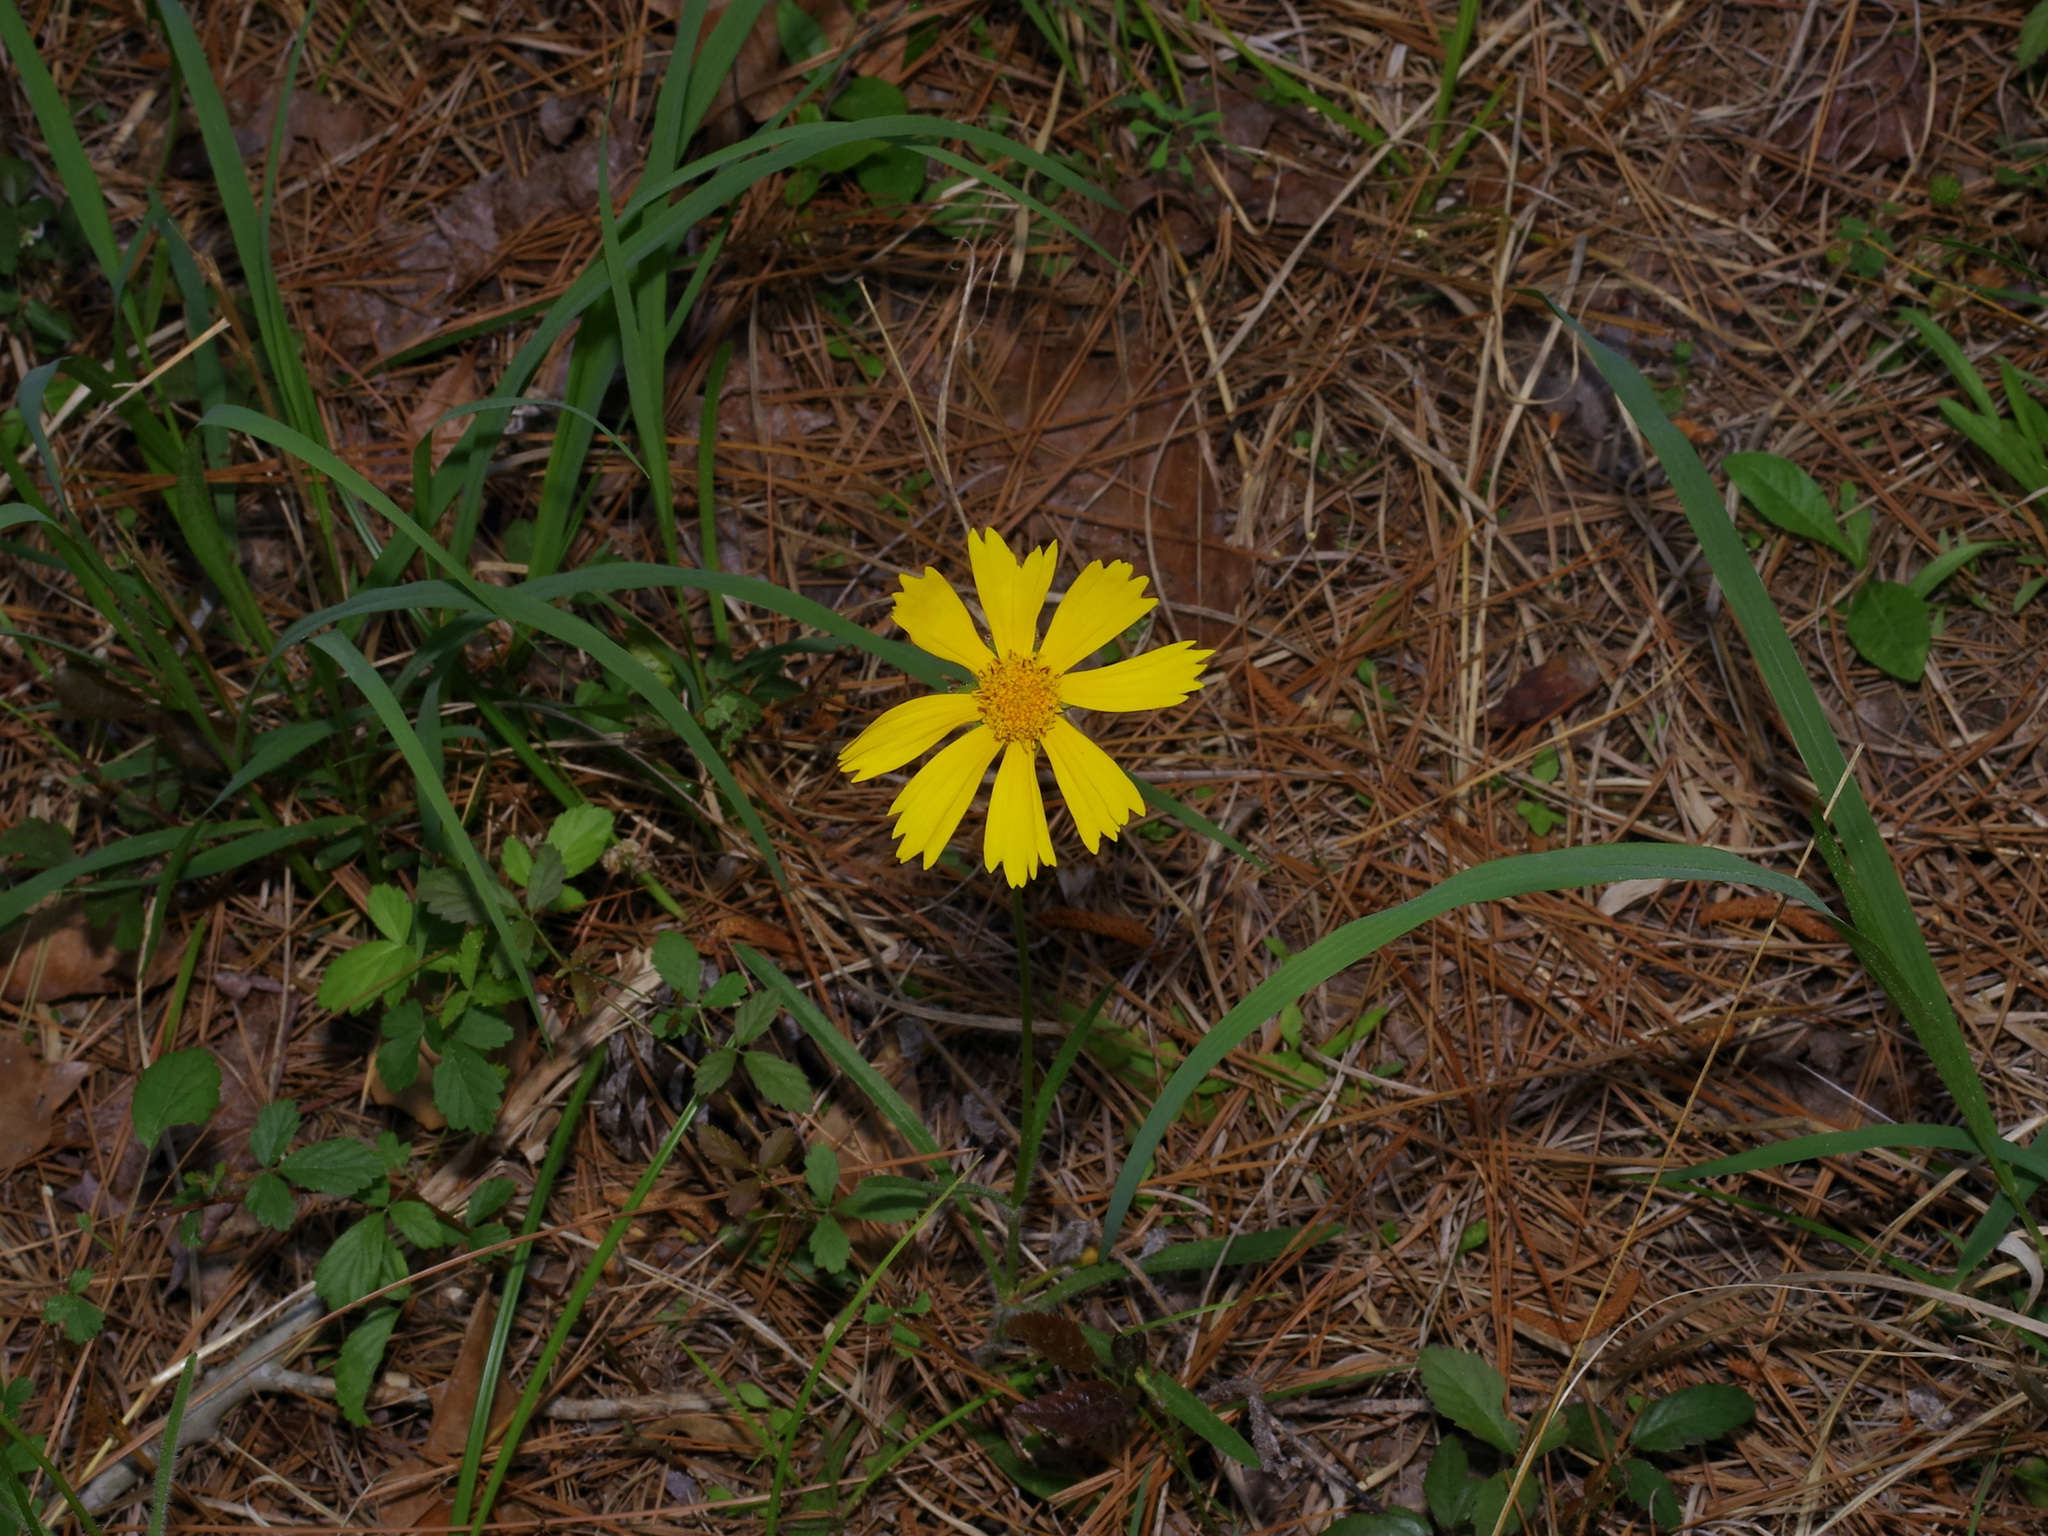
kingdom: Plantae
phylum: Tracheophyta
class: Magnoliopsida
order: Asterales
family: Asteraceae
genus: Coreopsis
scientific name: Coreopsis lanceolata
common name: Garden coreopsis
